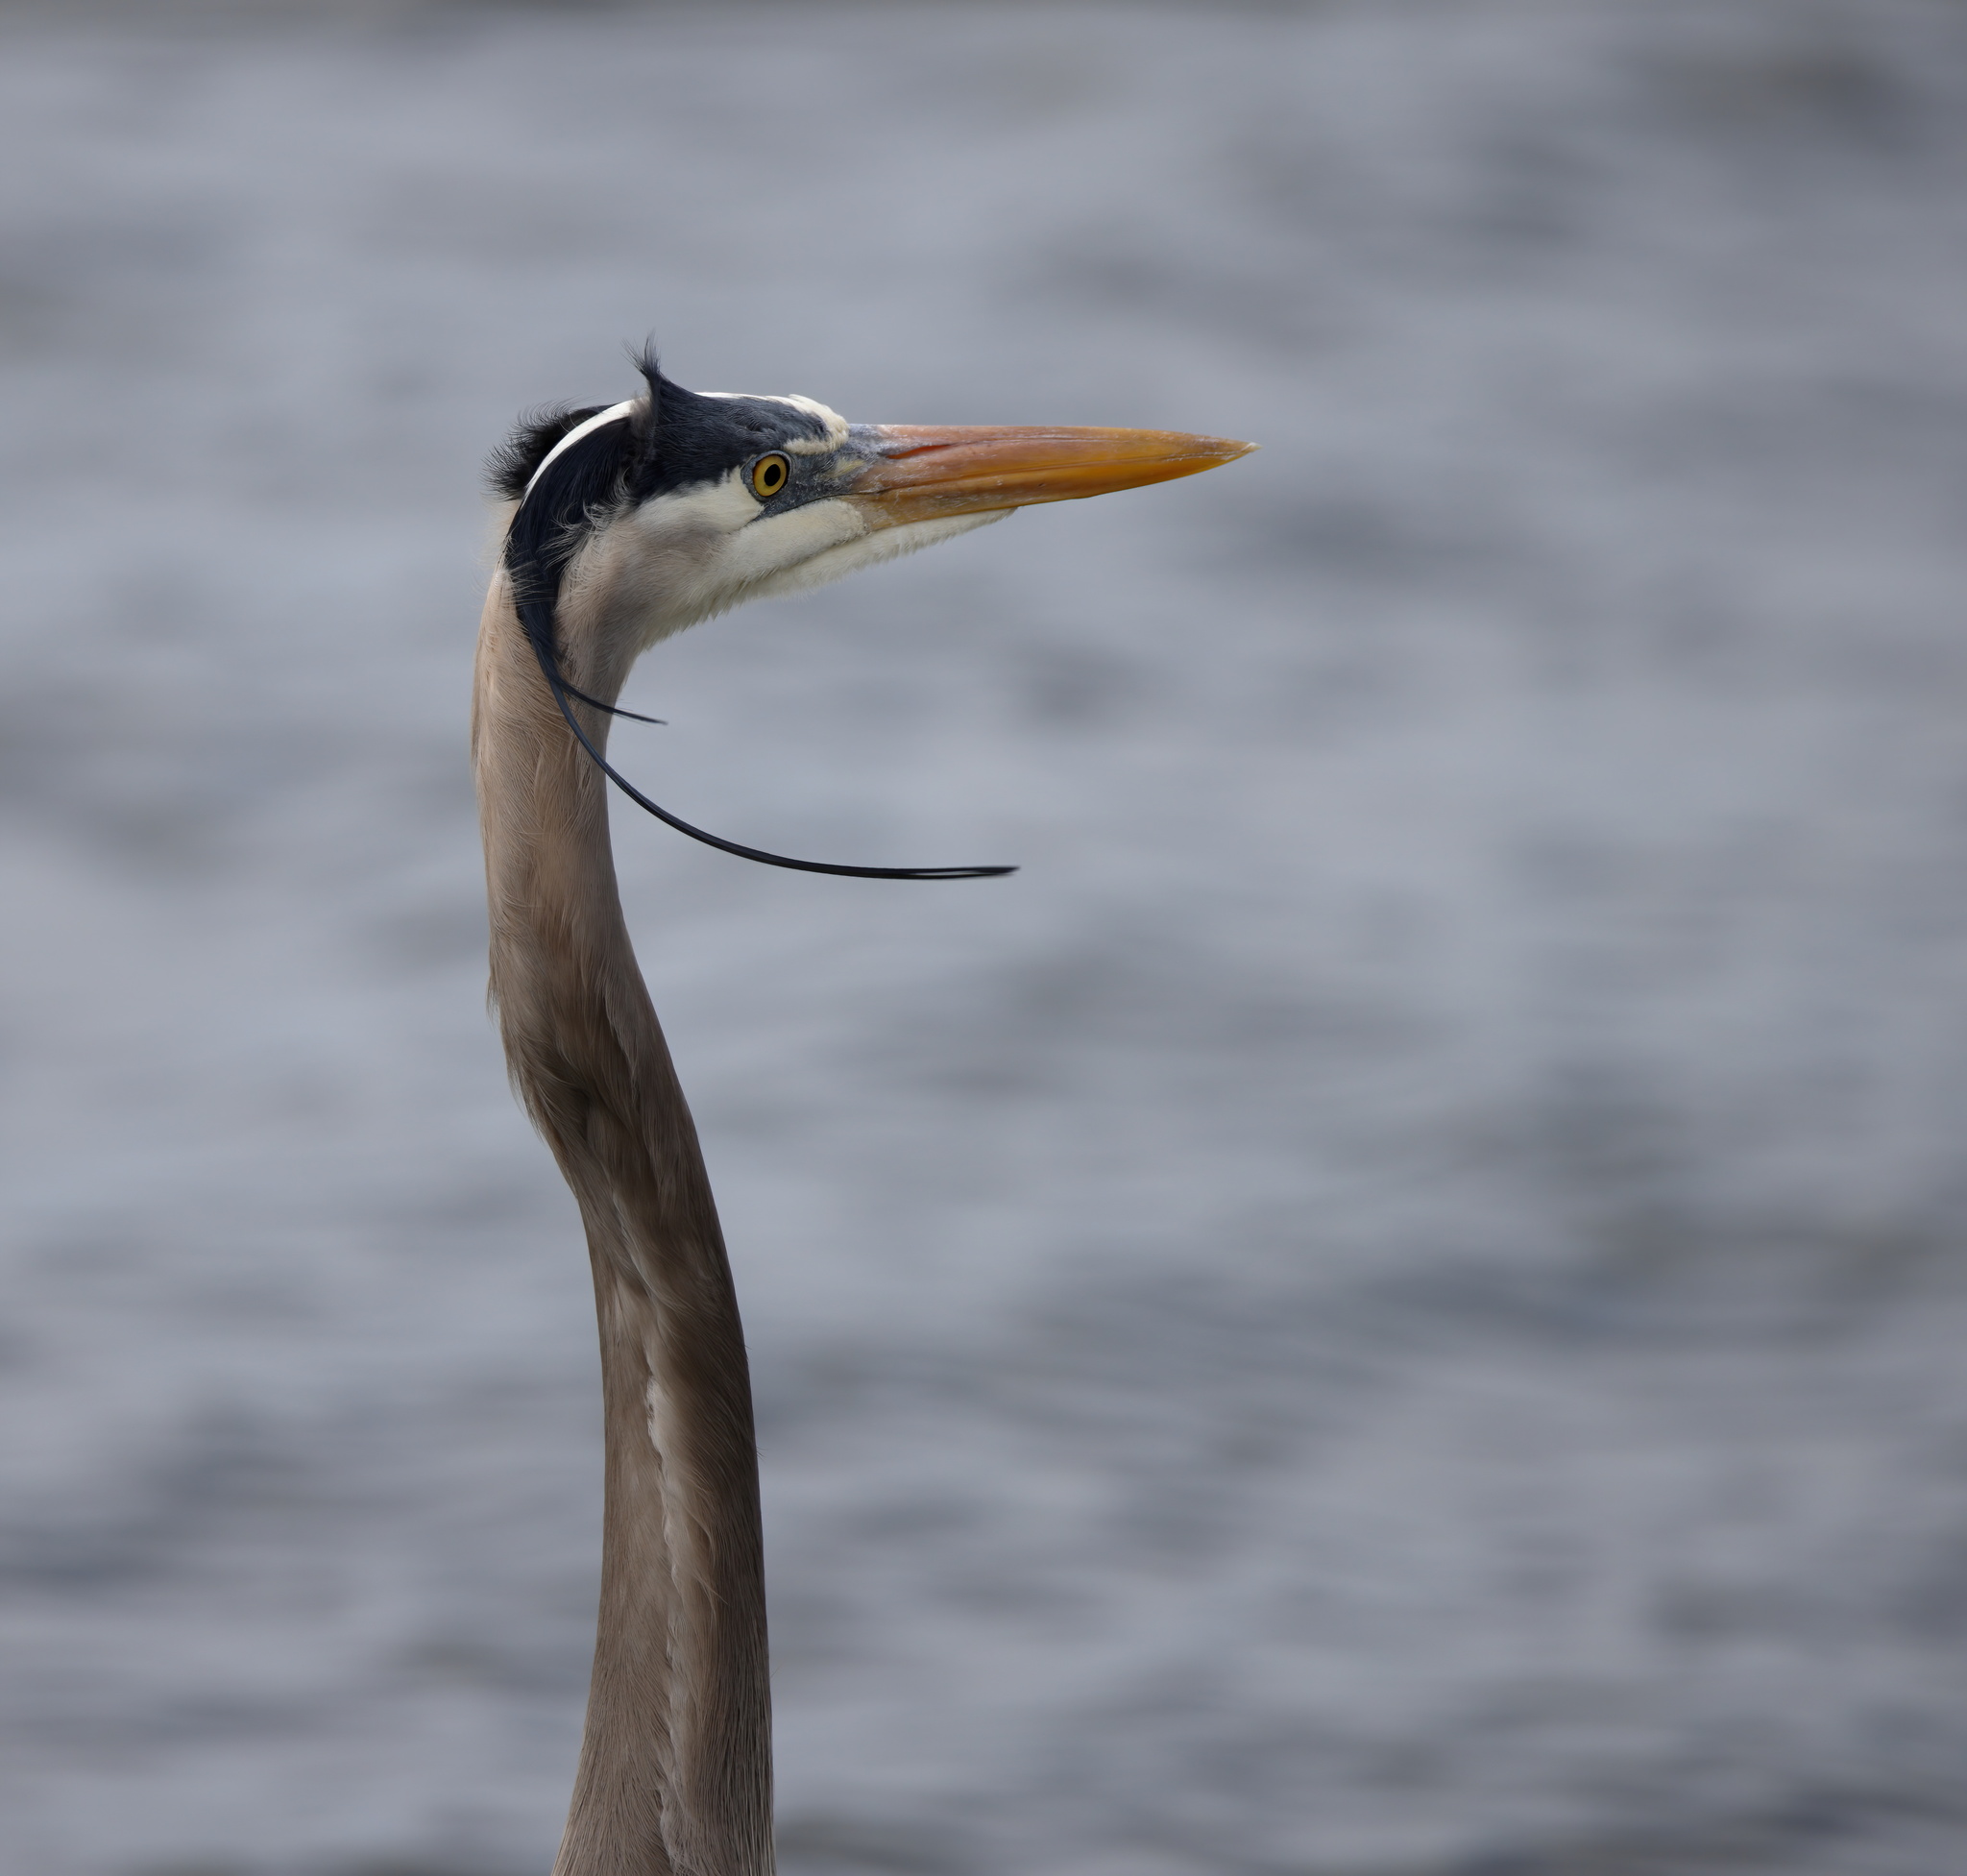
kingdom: Animalia
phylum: Chordata
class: Aves
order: Pelecaniformes
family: Ardeidae
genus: Ardea
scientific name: Ardea herodias
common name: Great blue heron
